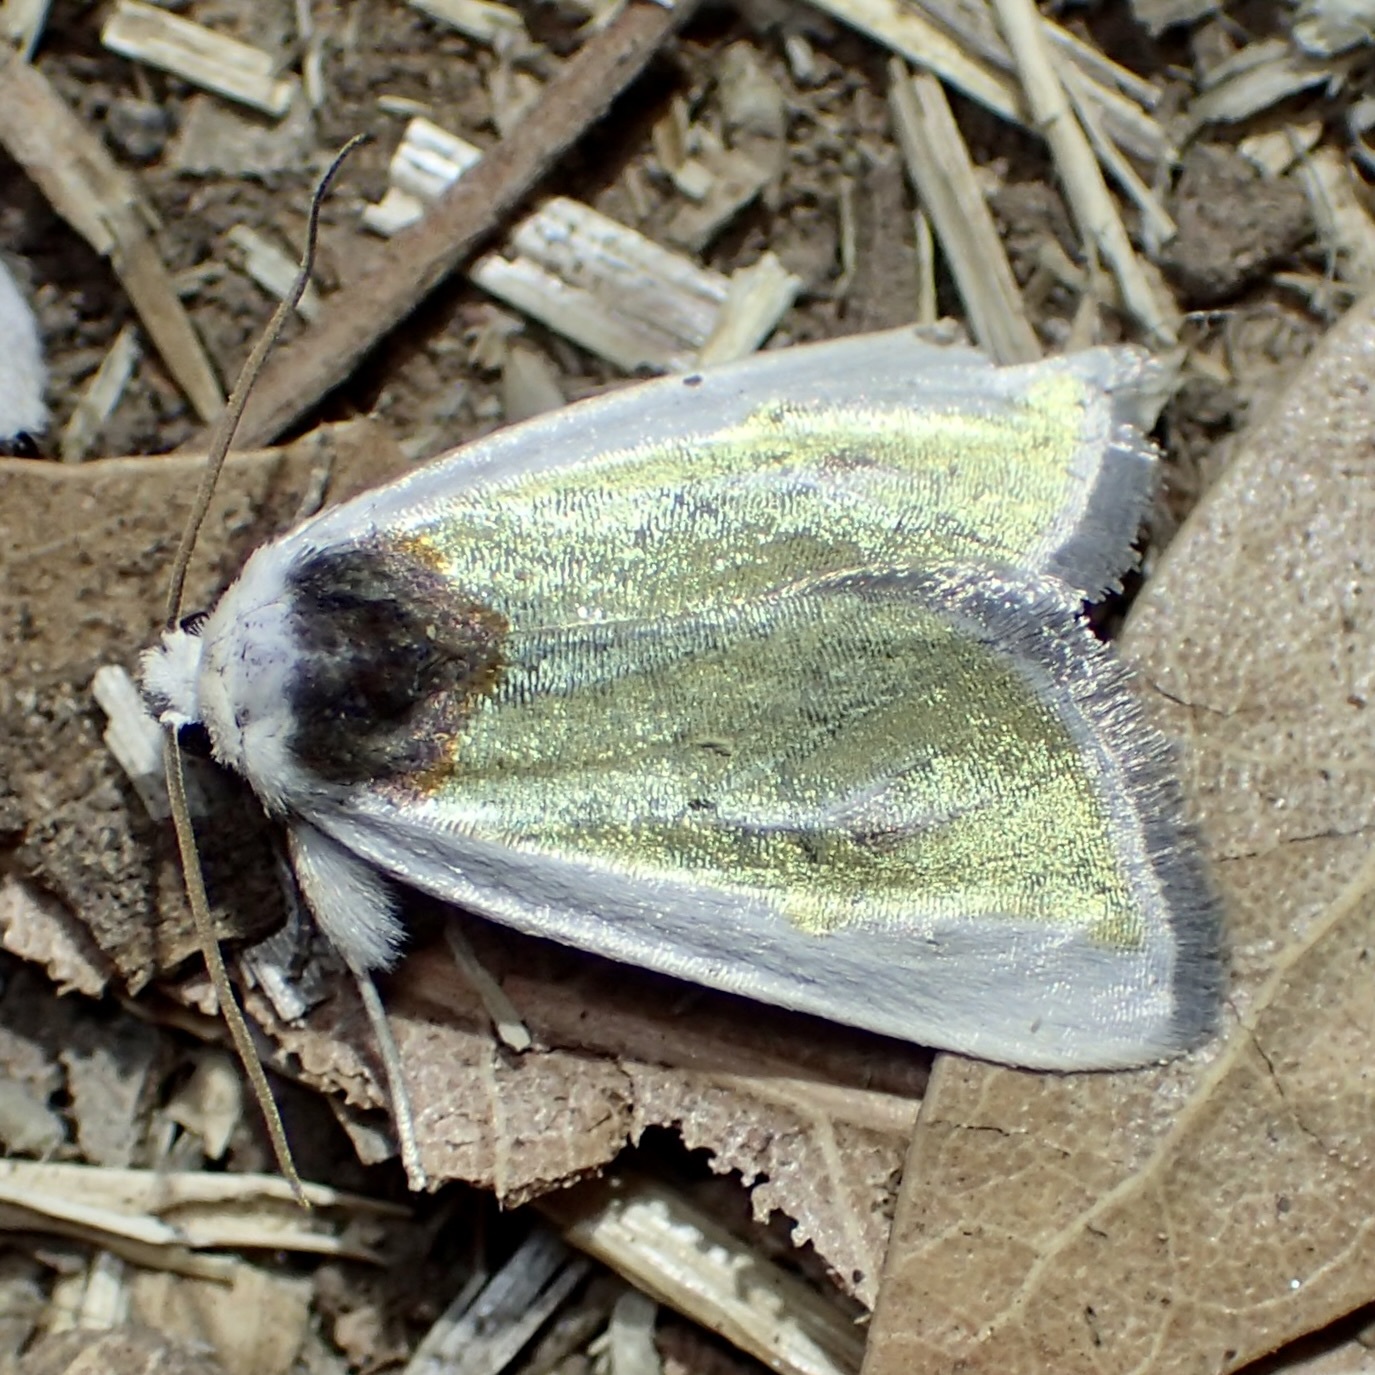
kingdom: Animalia
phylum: Arthropoda
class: Insecta
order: Lepidoptera
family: Noctuidae
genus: Neumoegenia
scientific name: Neumoegenia poetica
